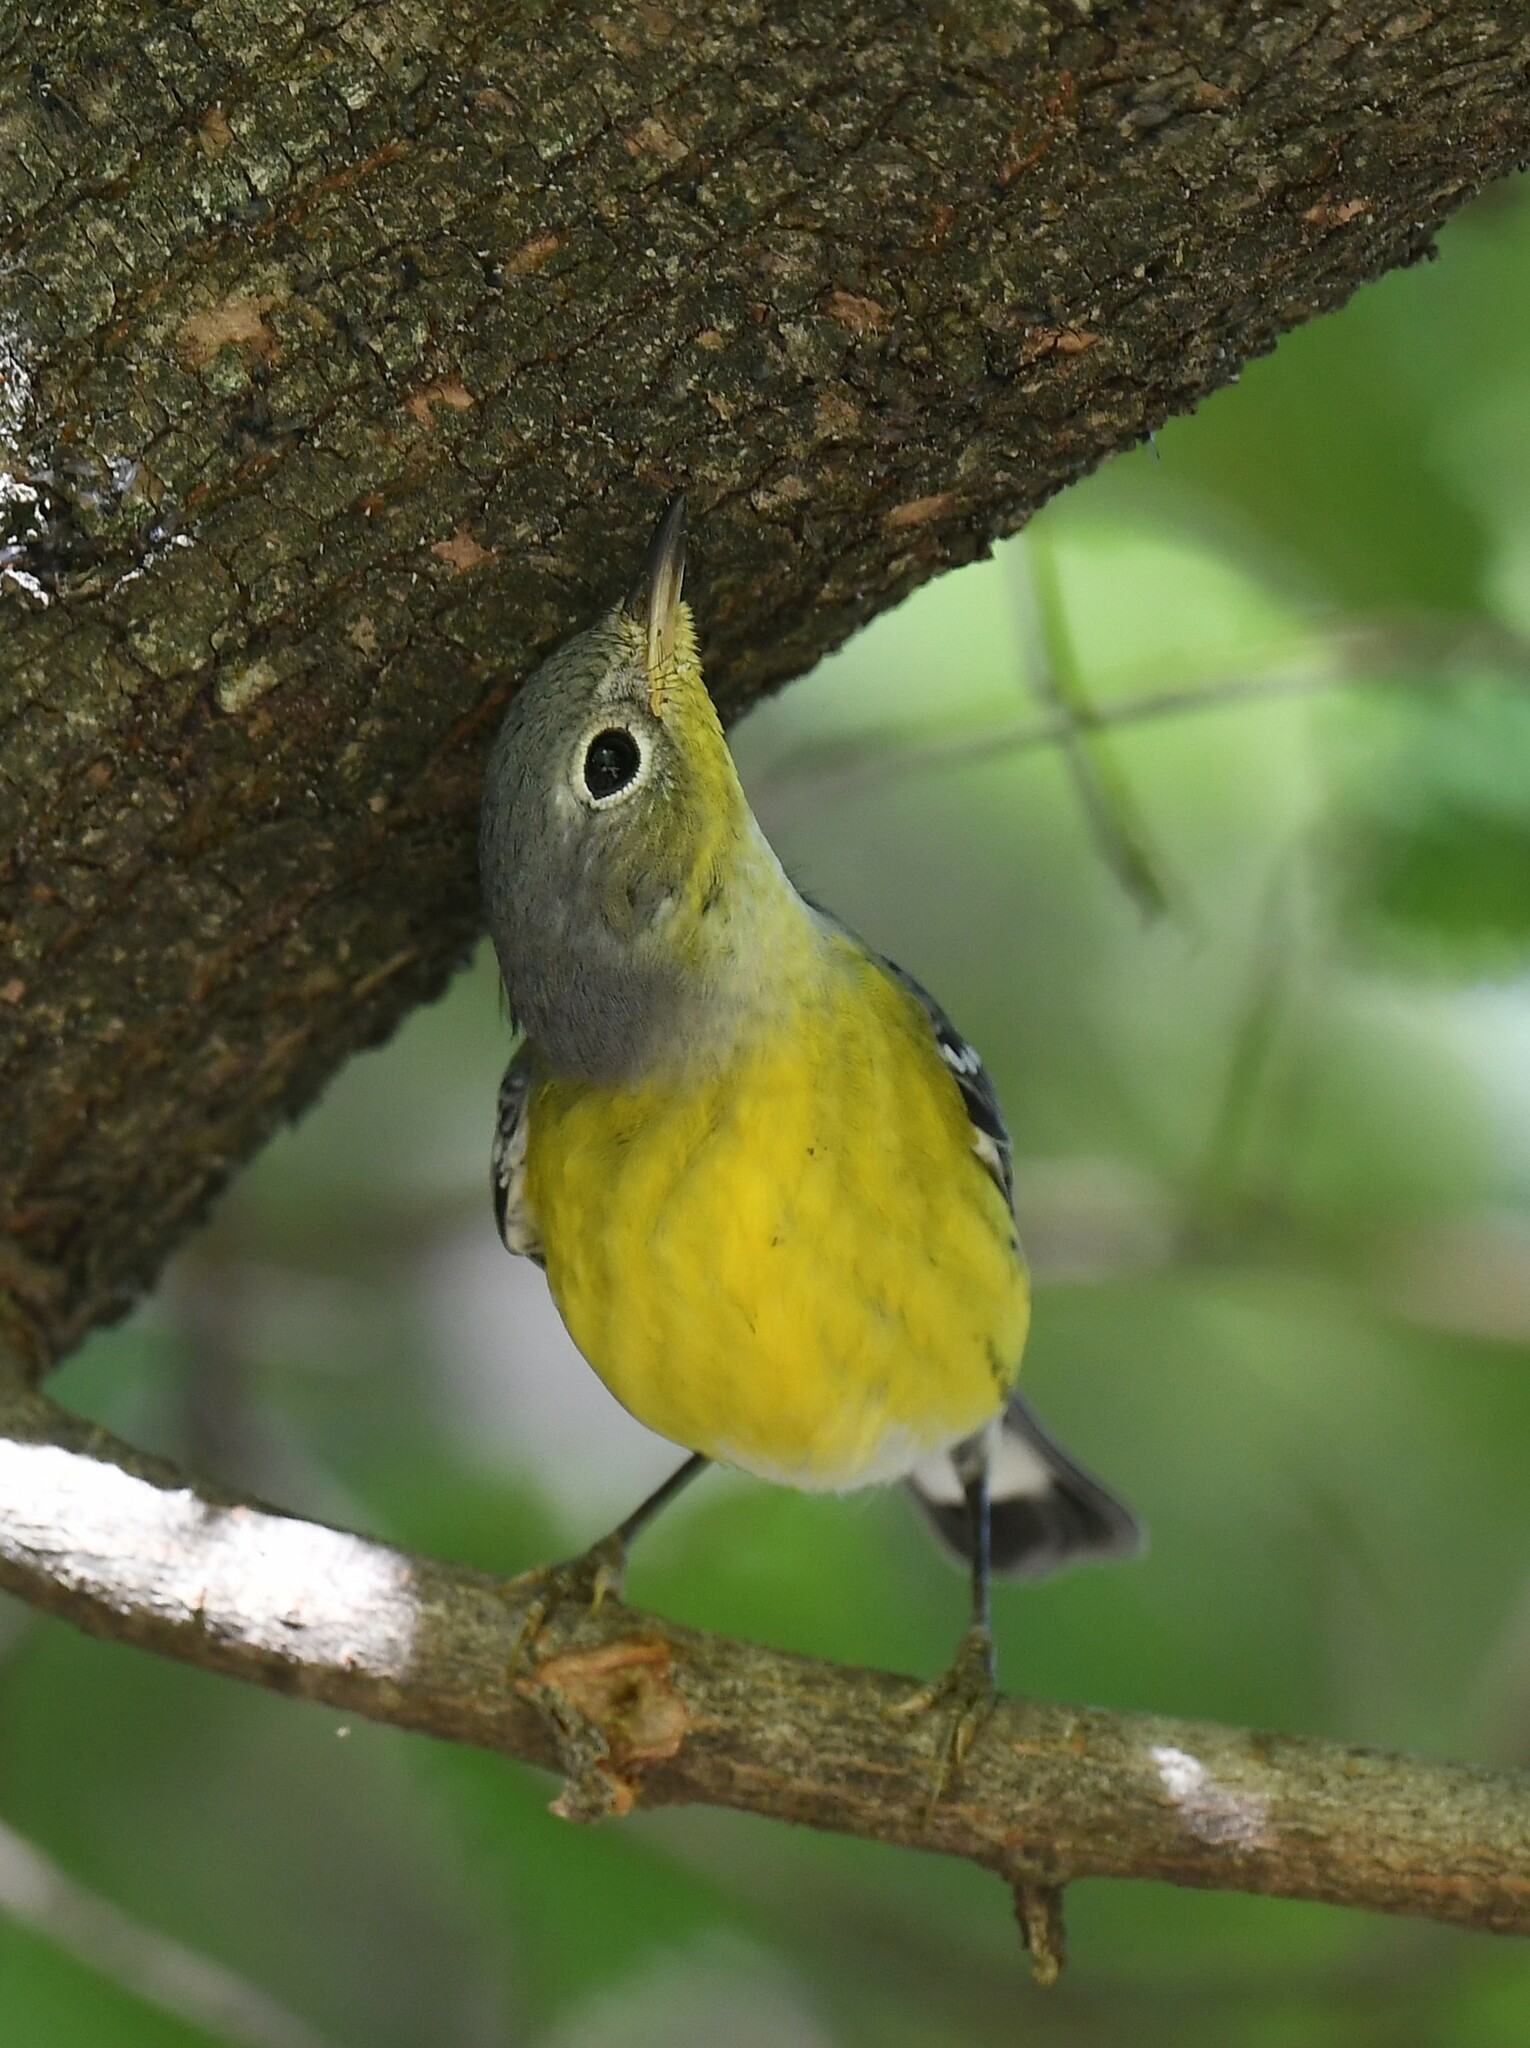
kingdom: Animalia
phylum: Chordata
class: Aves
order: Passeriformes
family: Parulidae
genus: Setophaga
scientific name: Setophaga magnolia
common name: Magnolia warbler
